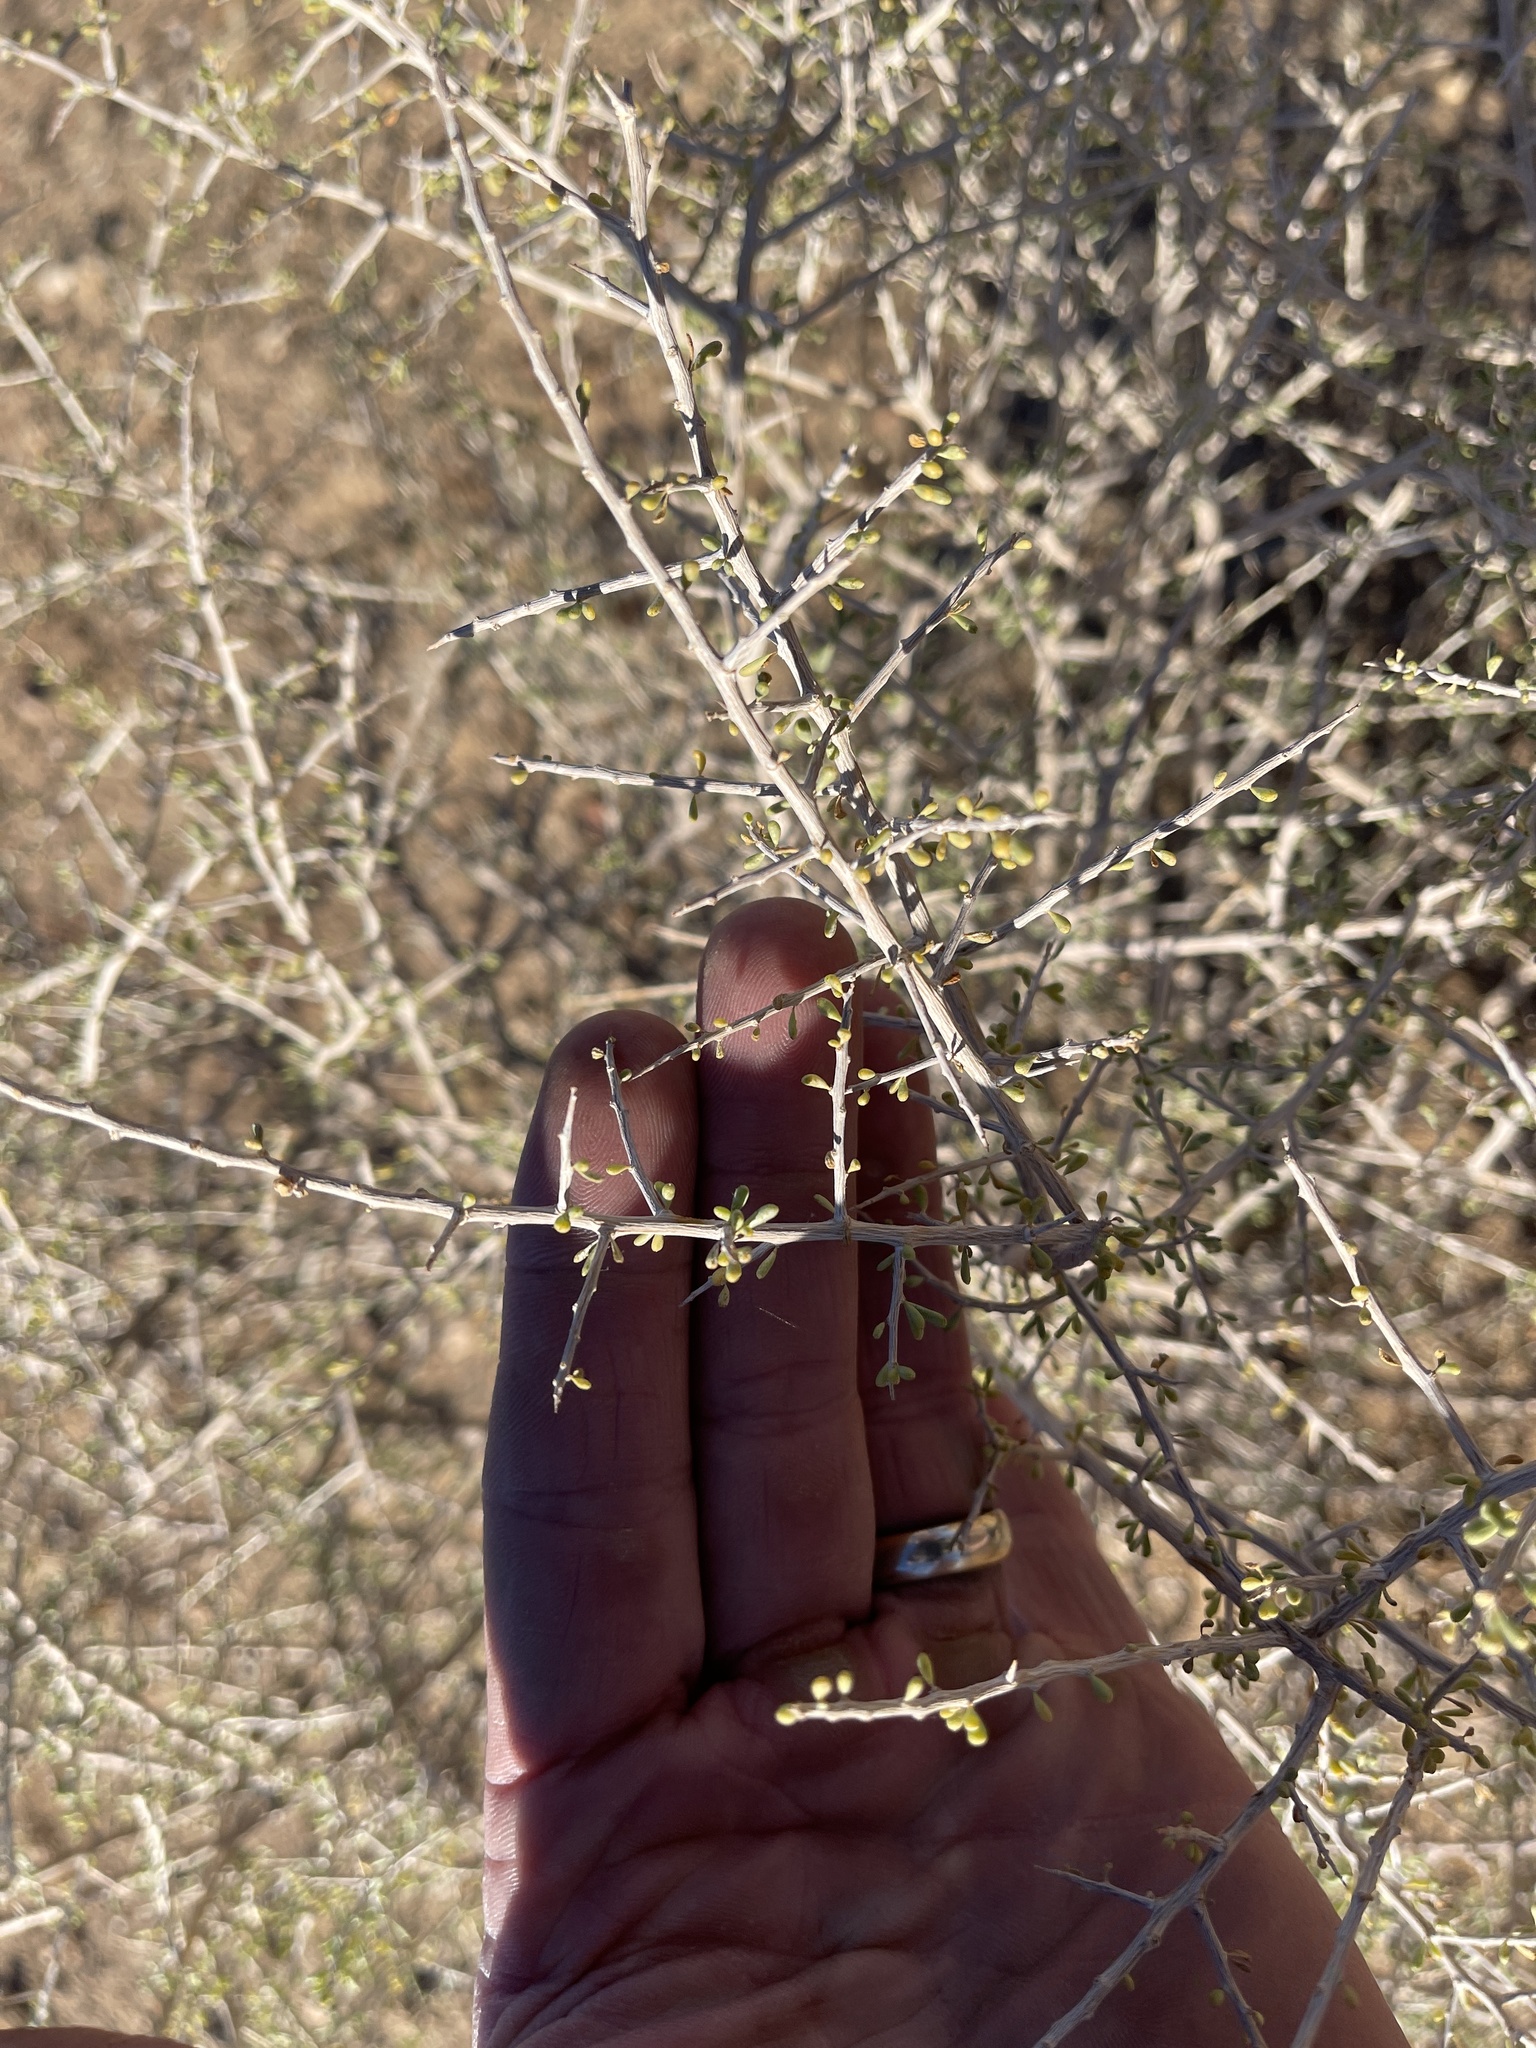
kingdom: Plantae
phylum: Tracheophyta
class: Magnoliopsida
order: Solanales
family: Solanaceae
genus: Lycium
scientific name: Lycium andersonii
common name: Water-jacket
